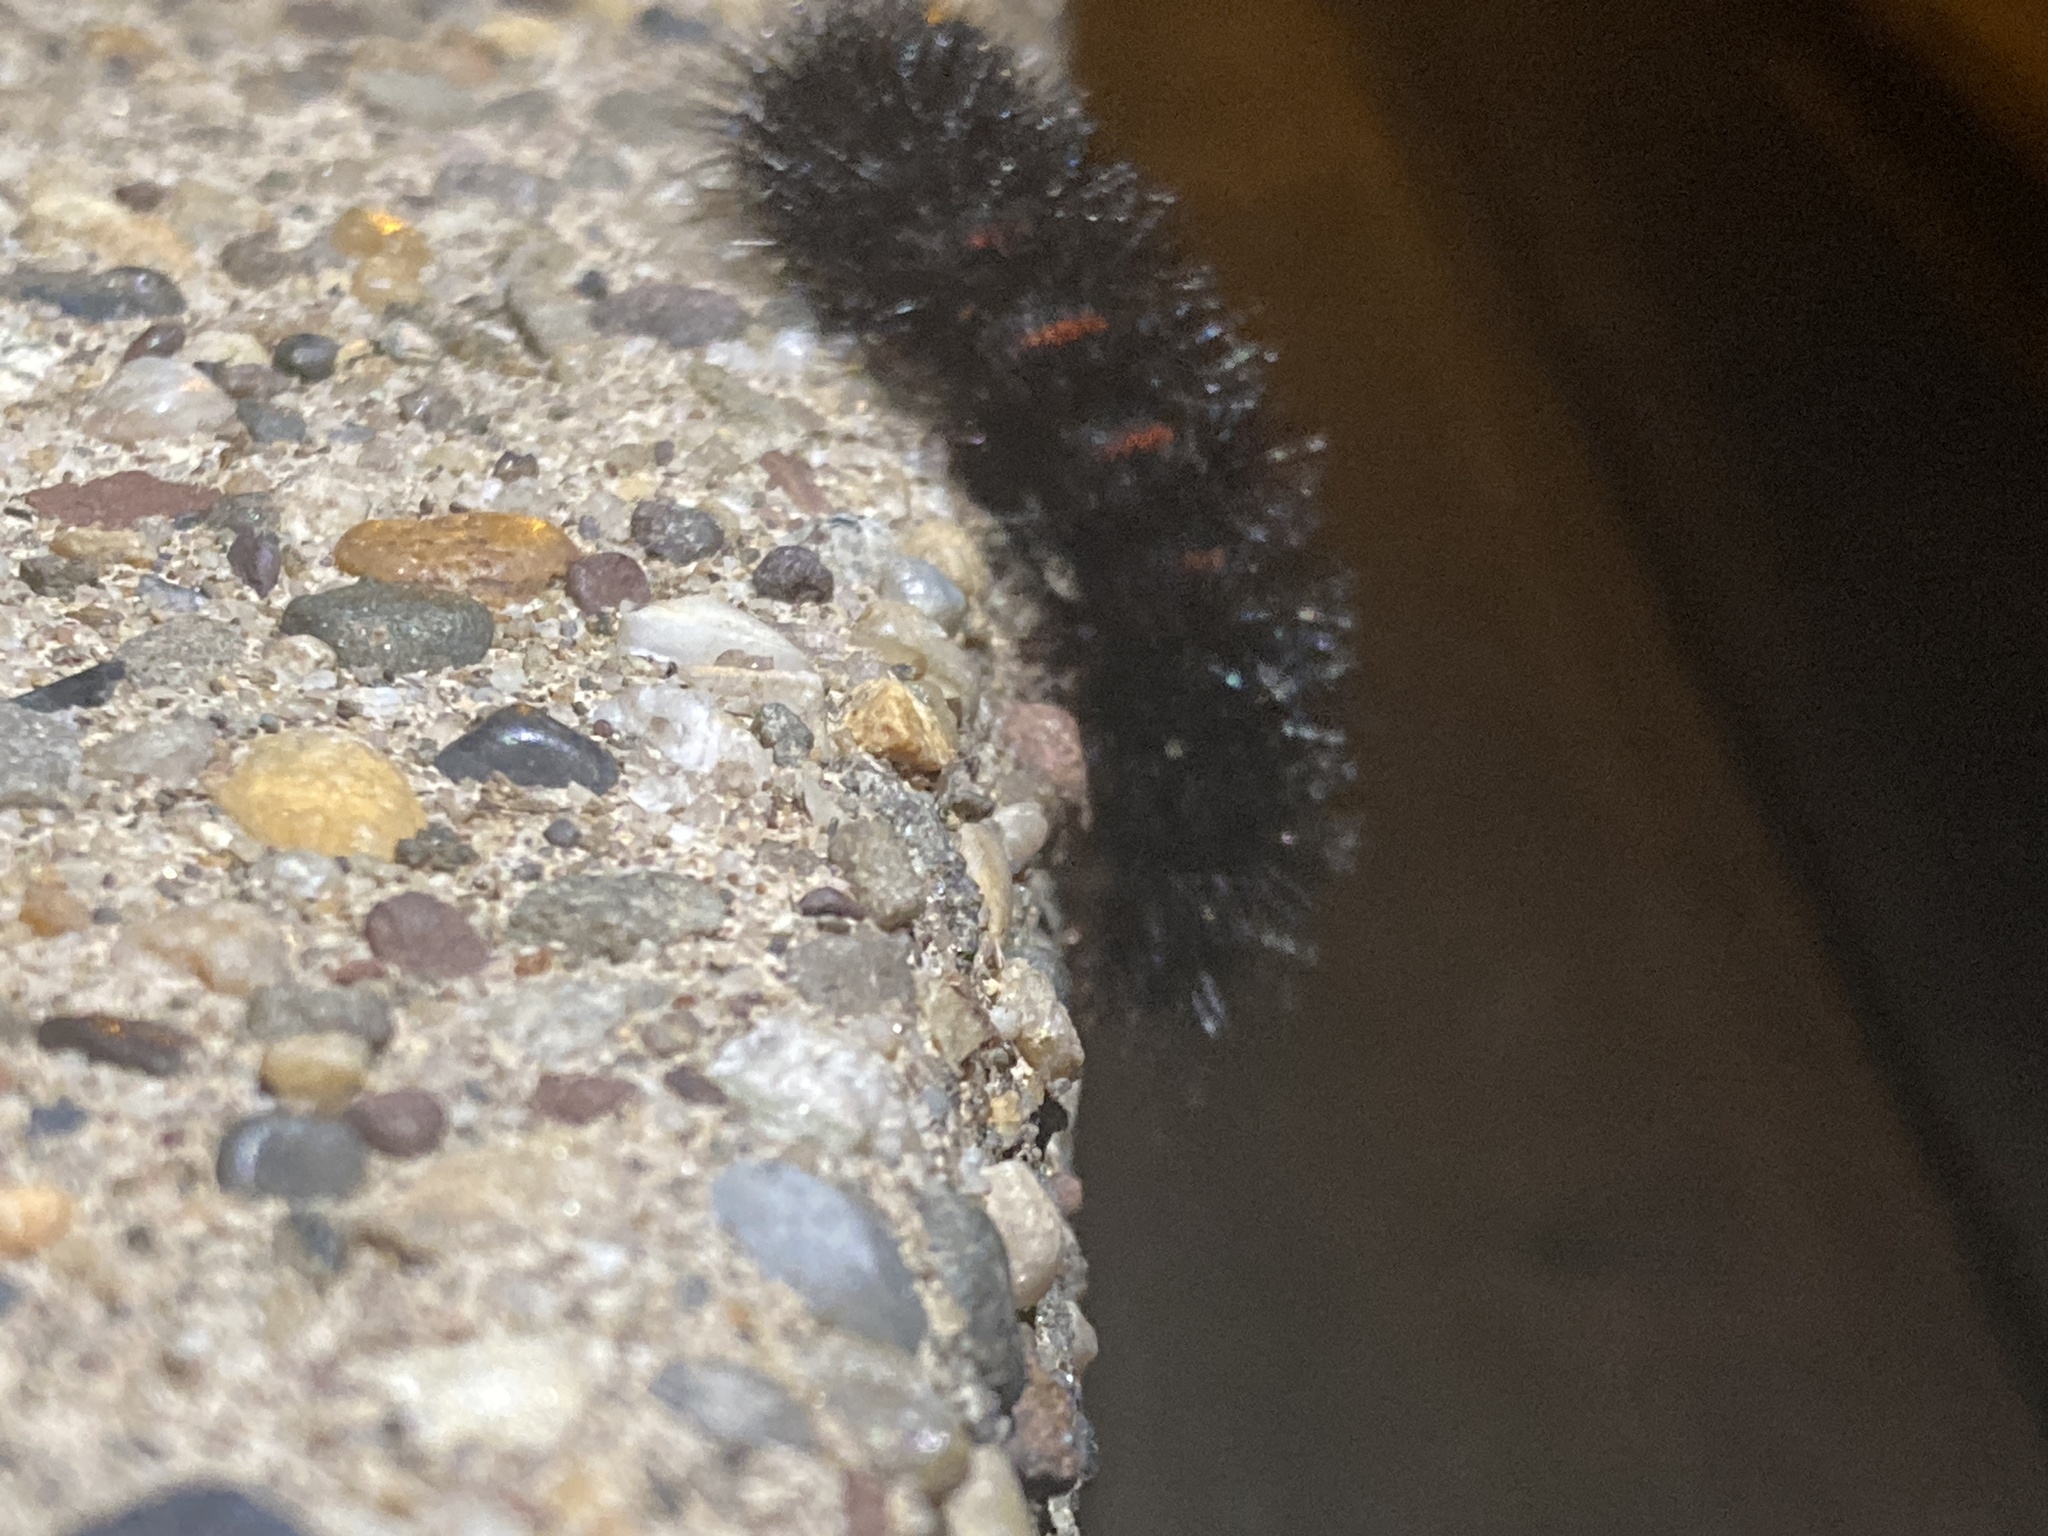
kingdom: Animalia
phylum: Arthropoda
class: Insecta
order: Lepidoptera
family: Erebidae
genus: Hypercompe
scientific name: Hypercompe scribonia
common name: Giant leopard moth
